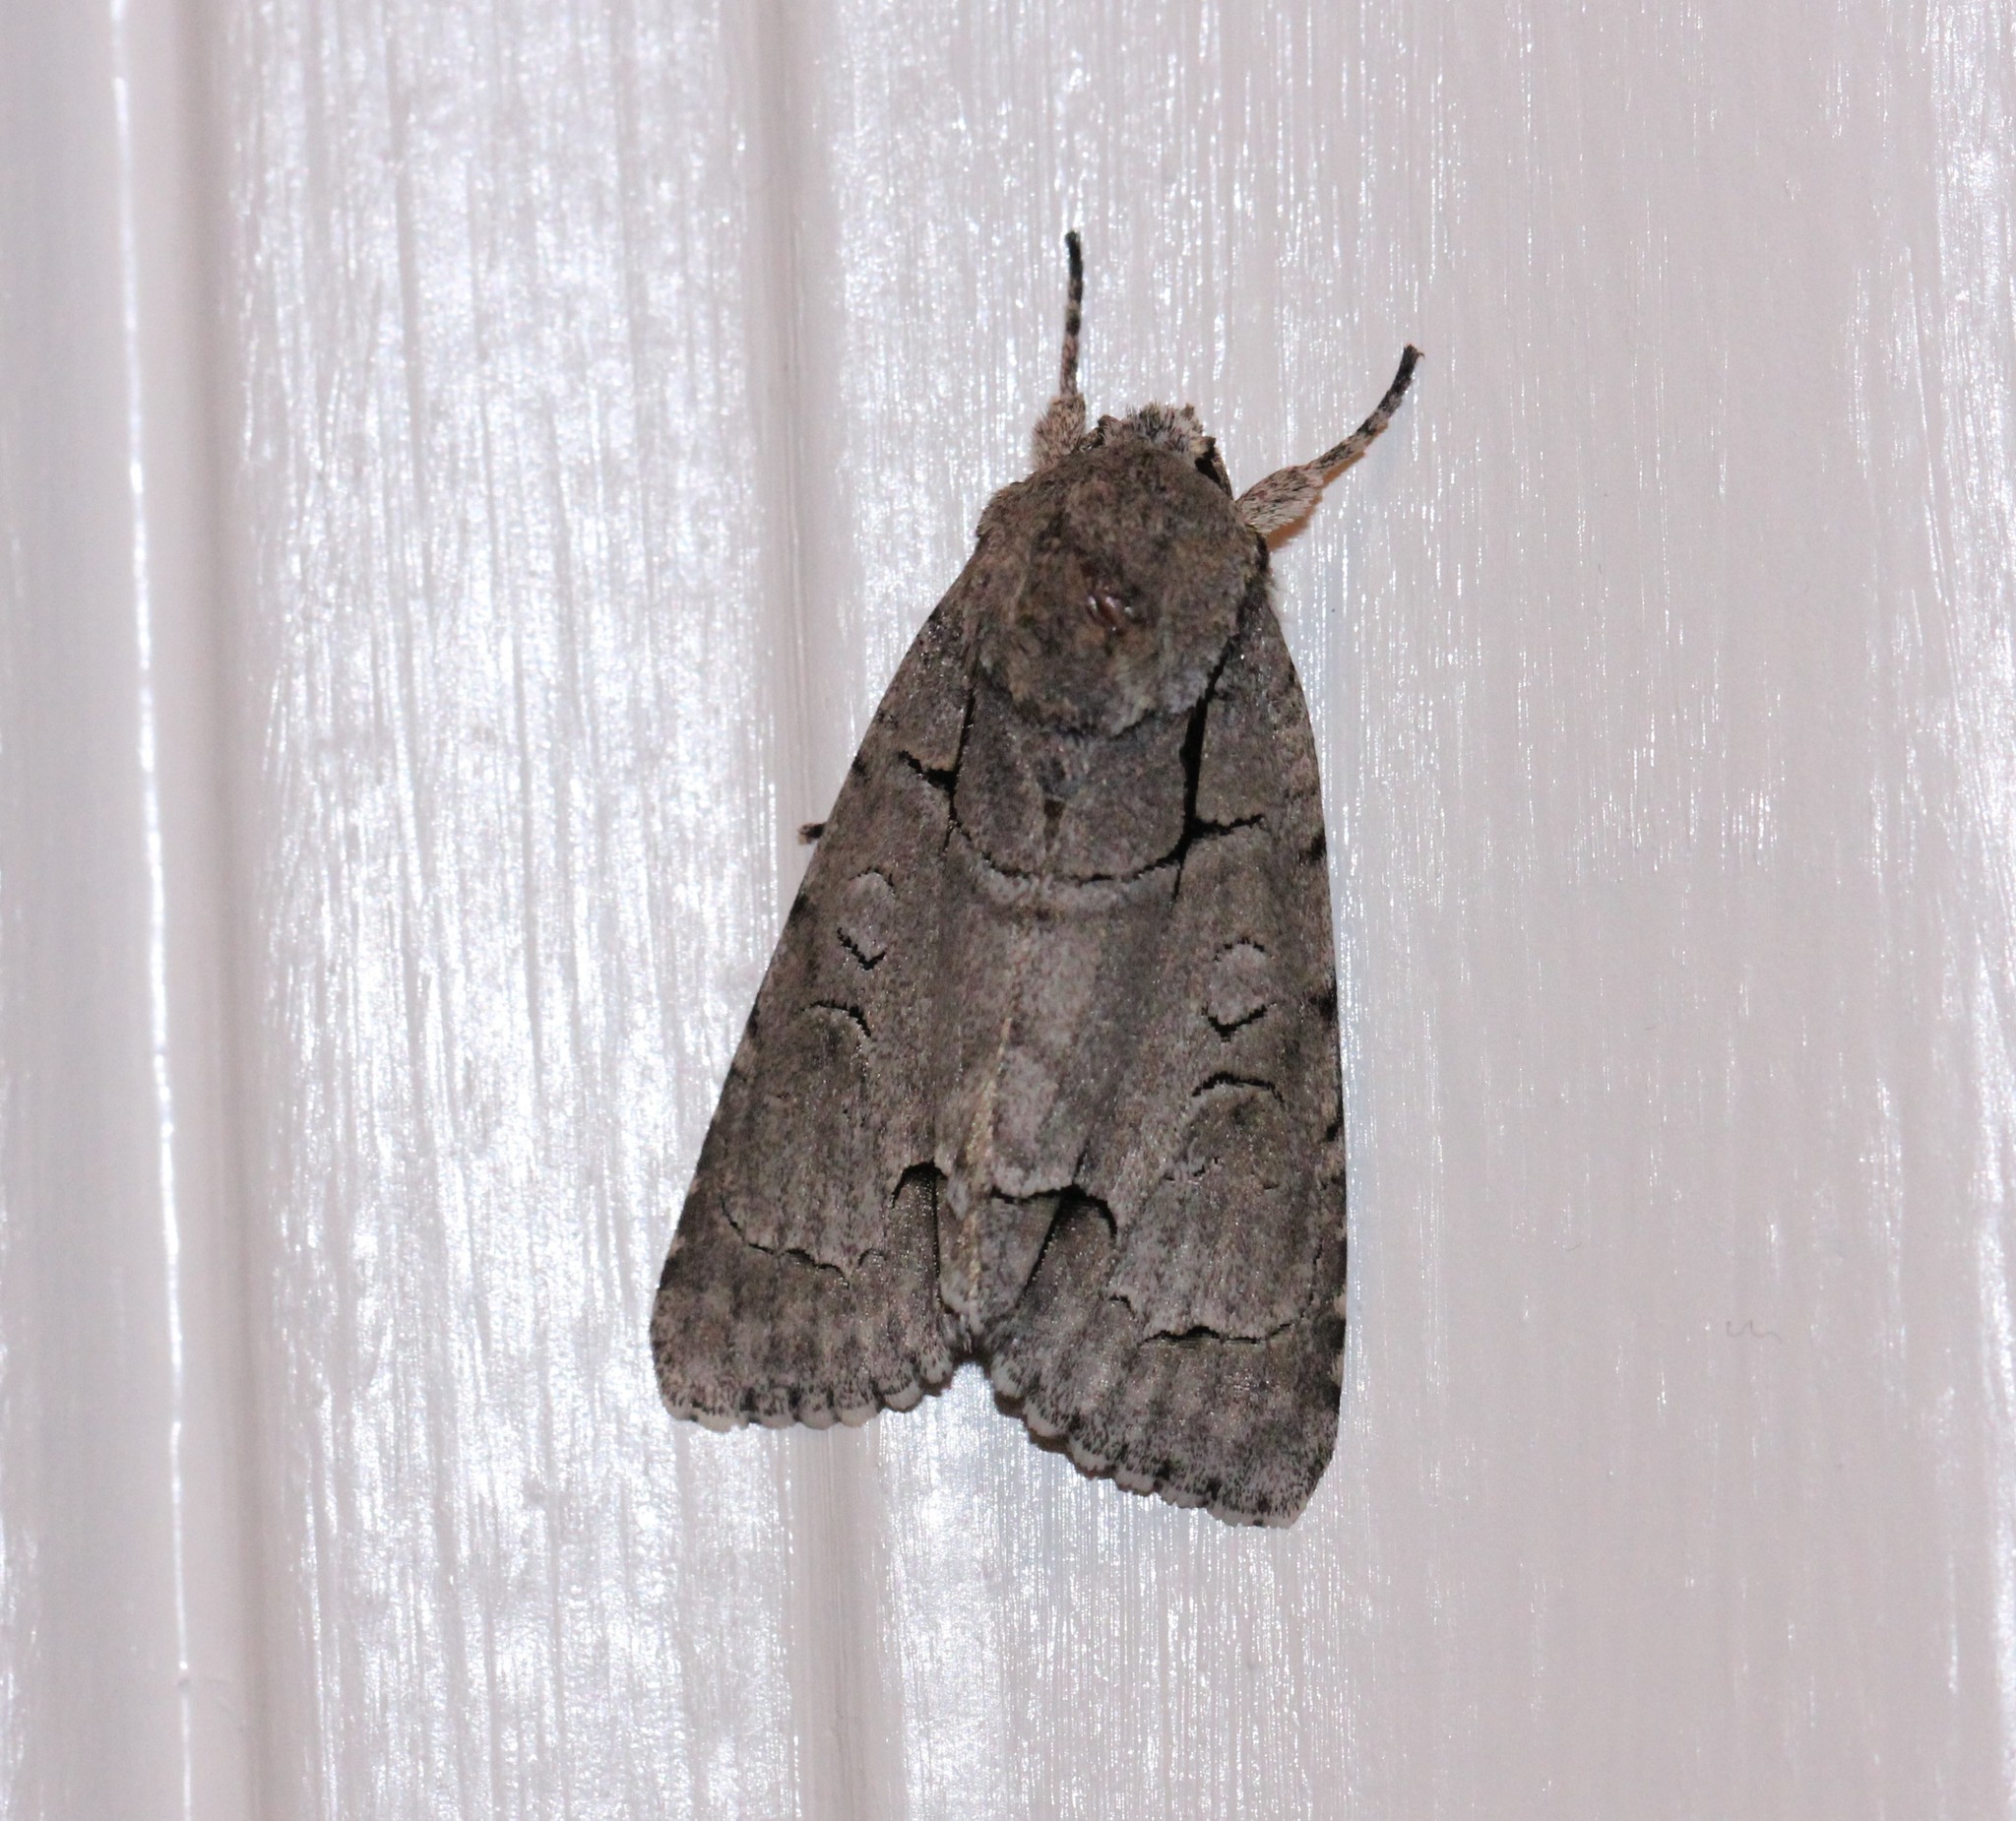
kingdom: Animalia
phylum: Arthropoda
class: Insecta
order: Lepidoptera
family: Noctuidae
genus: Acronicta
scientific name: Acronicta radcliffei
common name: Radcliffe's dagger
